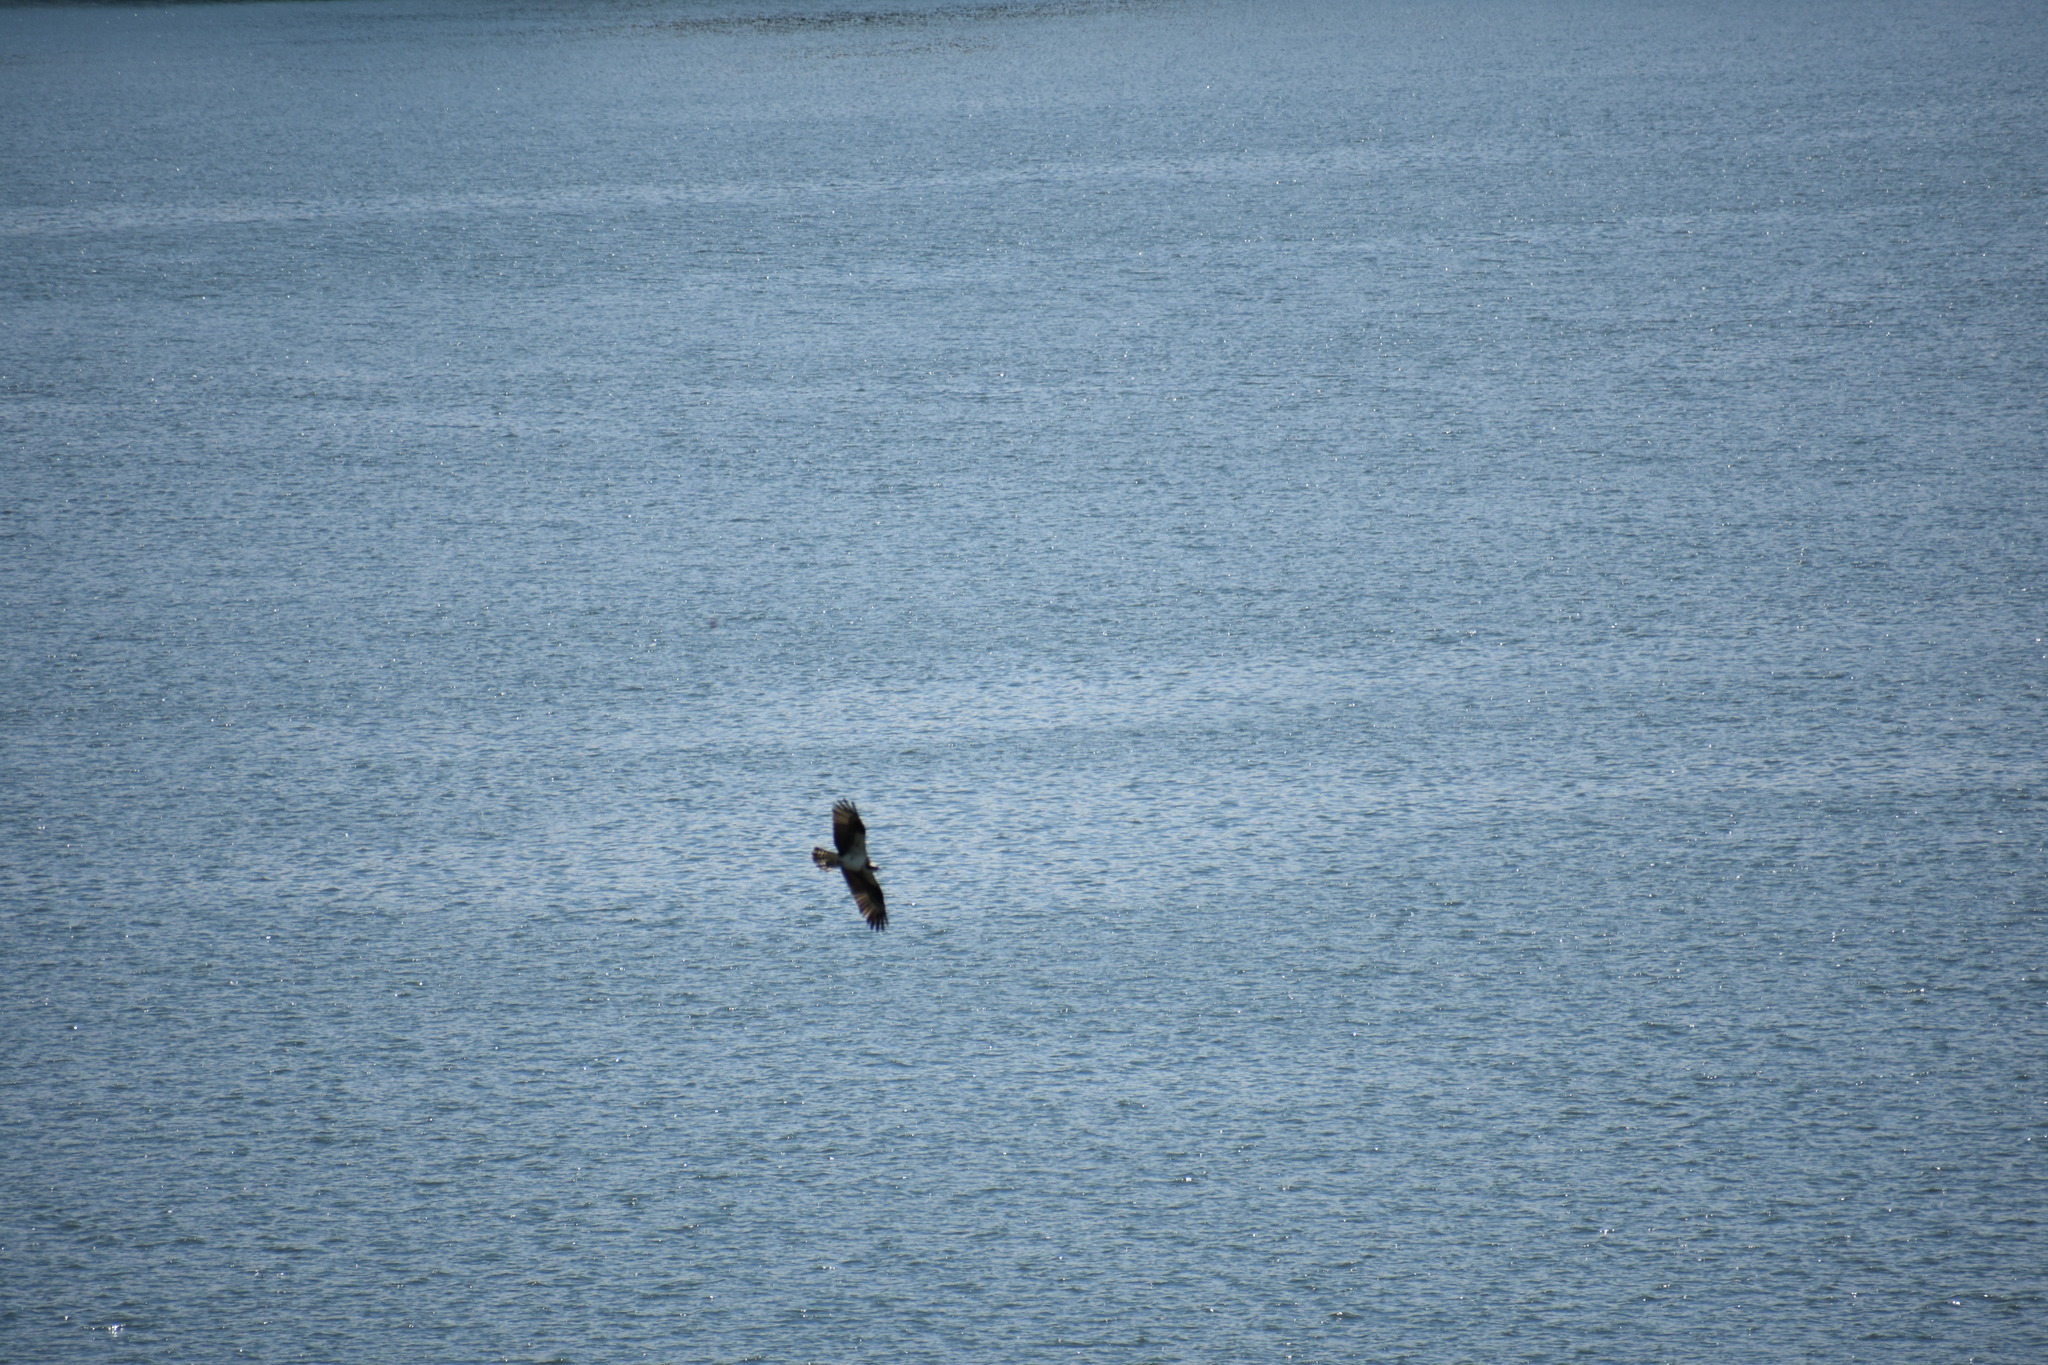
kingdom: Animalia
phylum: Chordata
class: Aves
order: Accipitriformes
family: Pandionidae
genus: Pandion
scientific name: Pandion haliaetus
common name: Osprey
